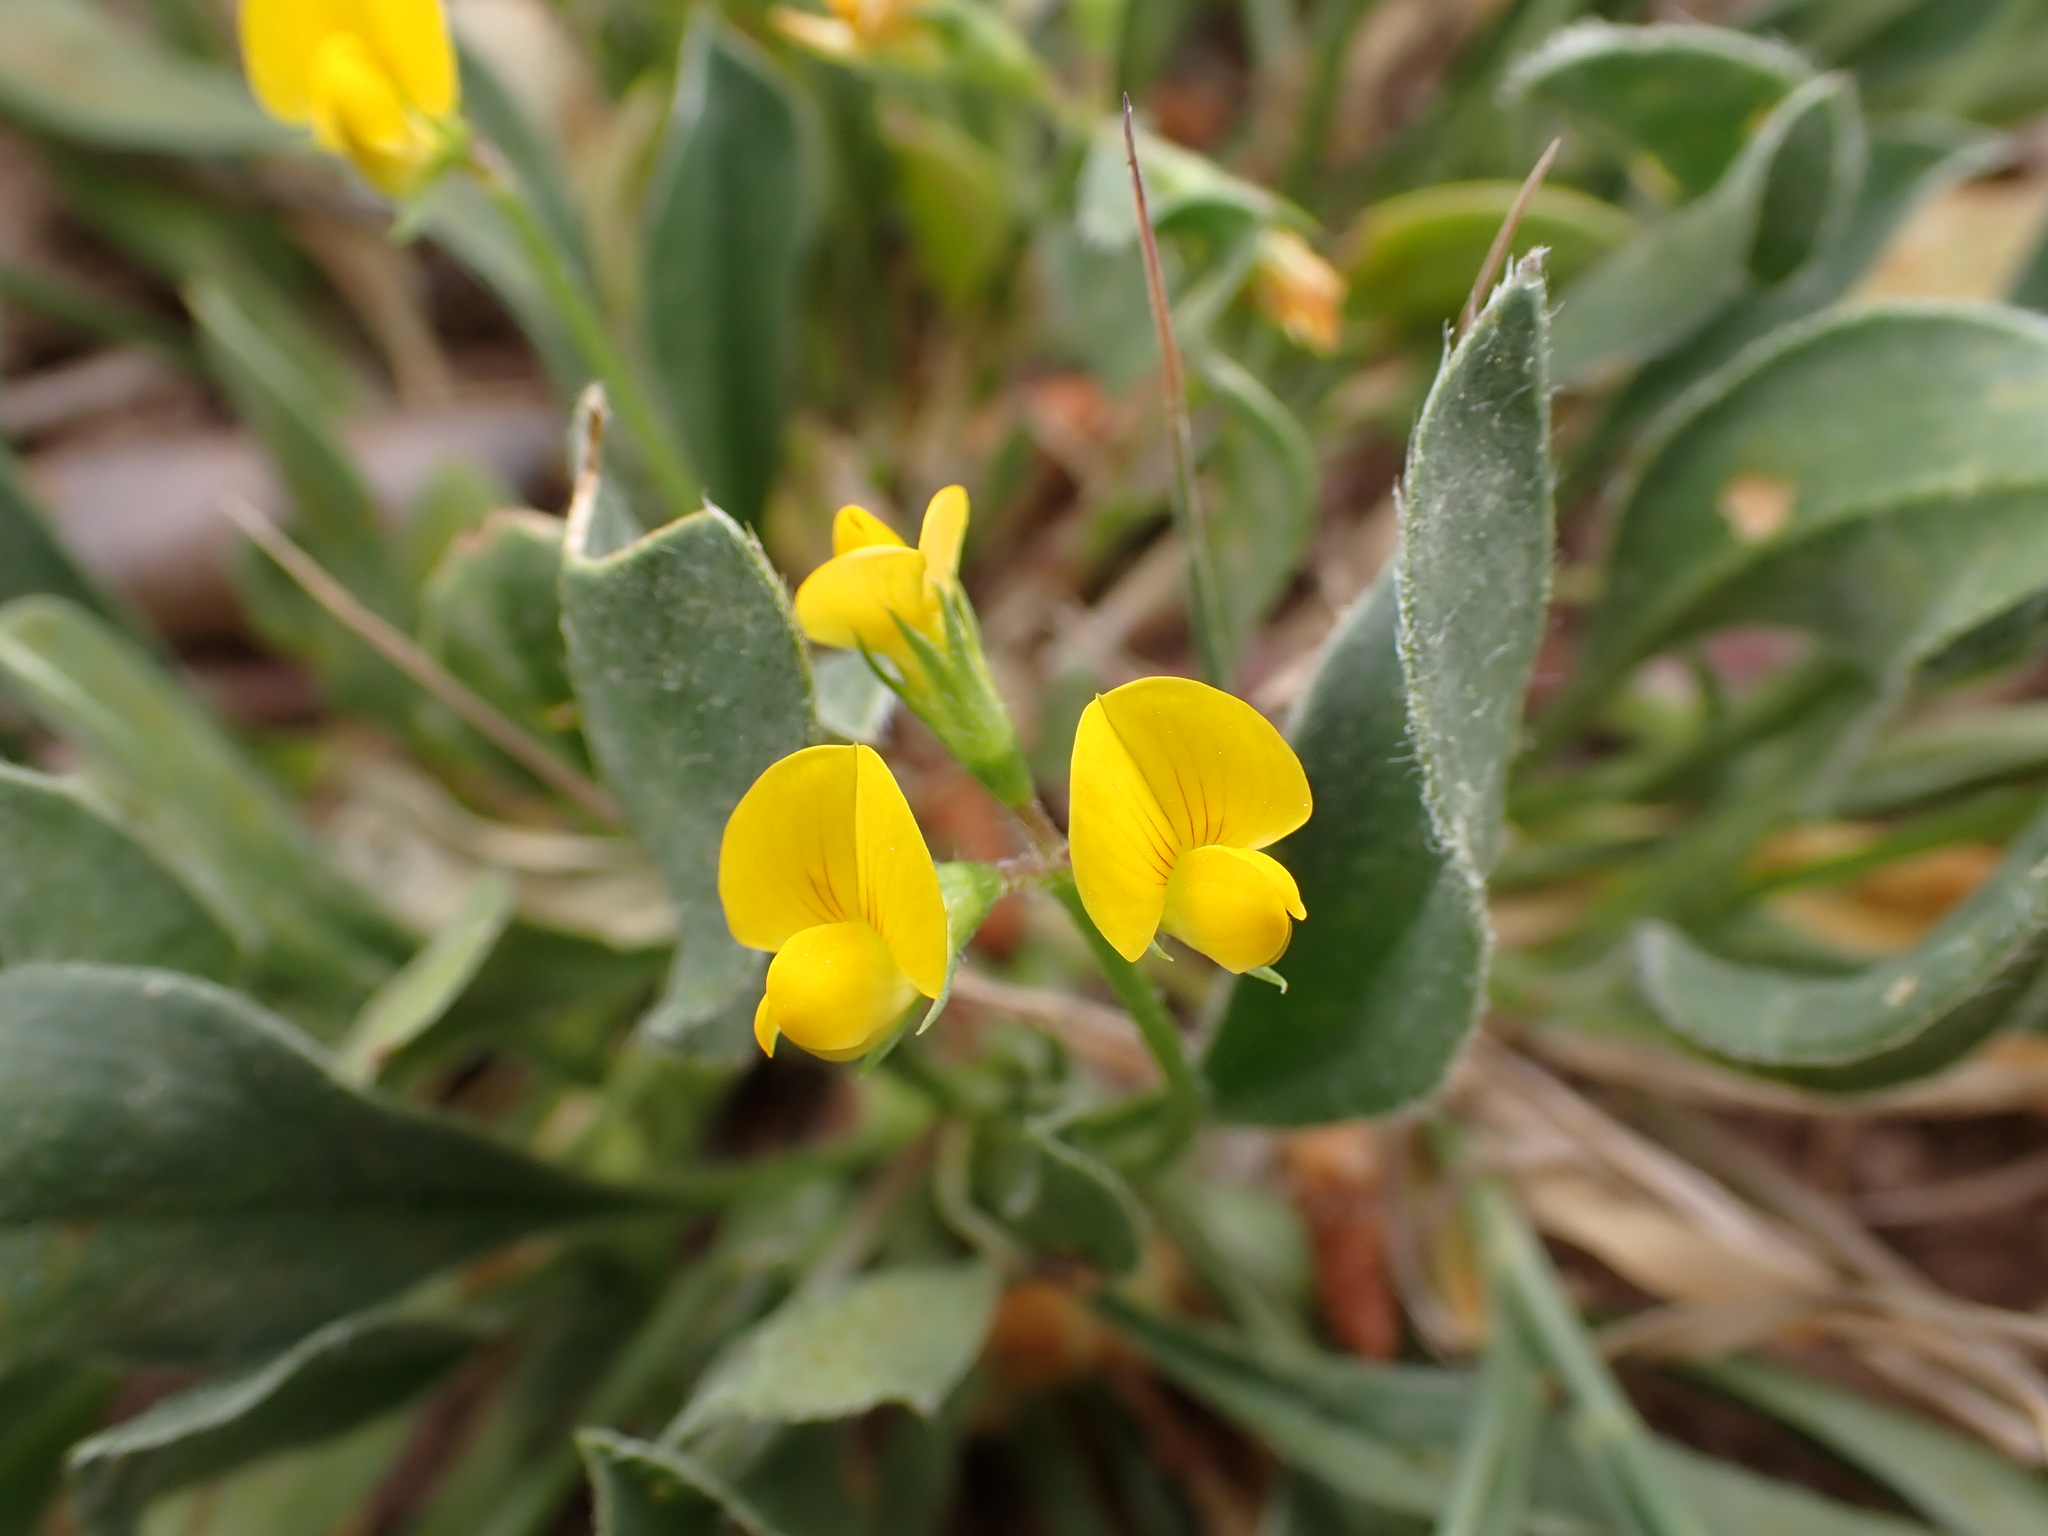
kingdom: Plantae
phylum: Tracheophyta
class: Magnoliopsida
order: Fabales
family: Fabaceae
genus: Scorpiurus
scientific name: Scorpiurus muricatus
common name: Caterpillar-plant
